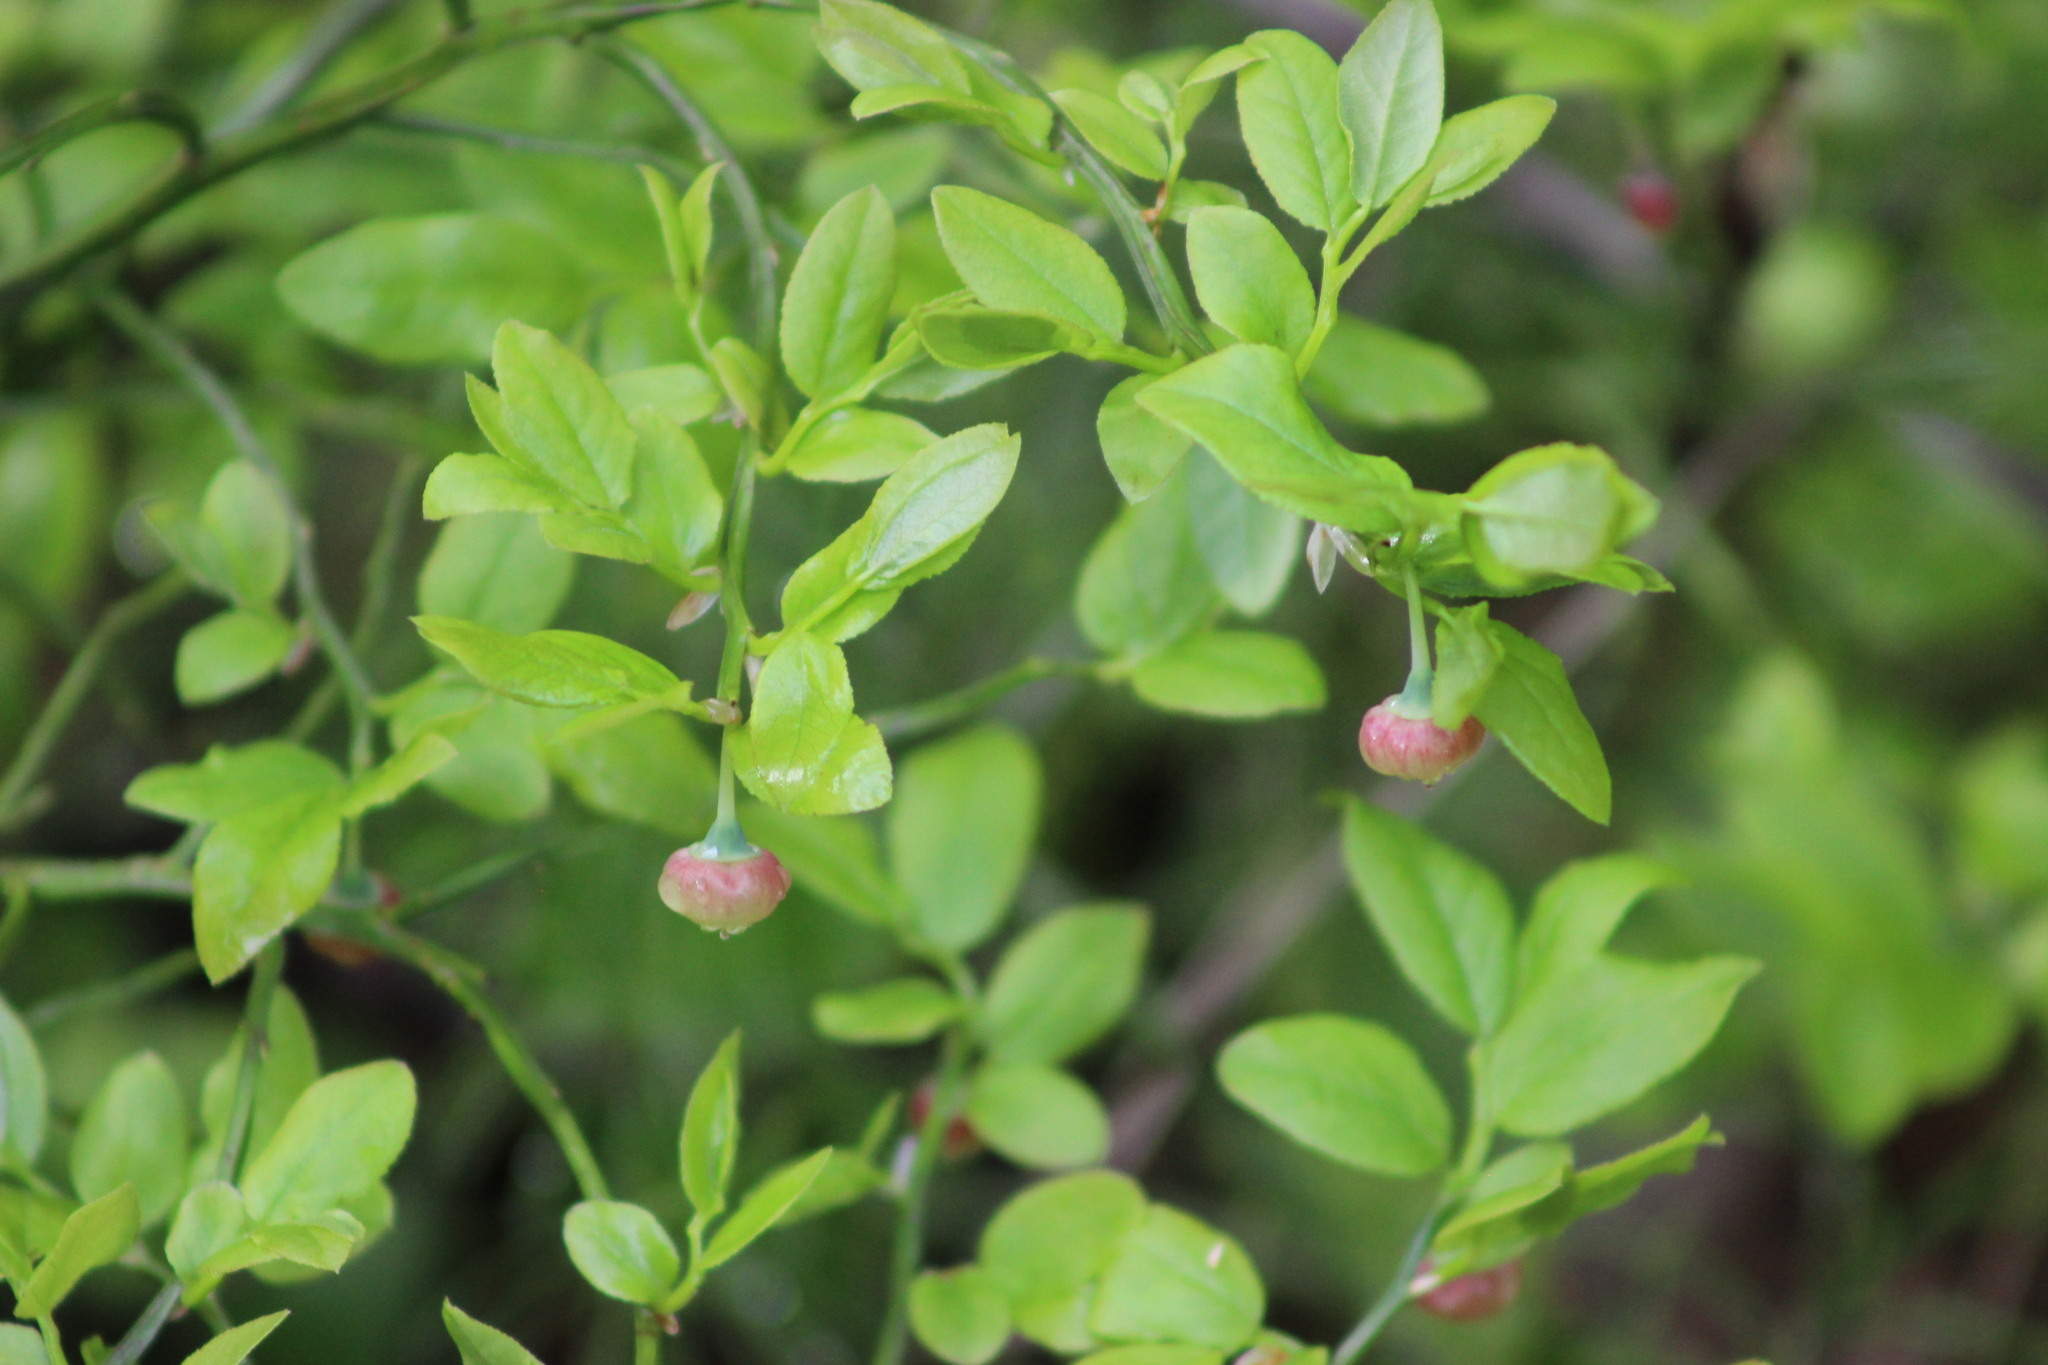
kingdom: Plantae
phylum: Tracheophyta
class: Magnoliopsida
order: Ericales
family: Ericaceae
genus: Vaccinium
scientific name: Vaccinium myrtillus
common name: Bilberry
